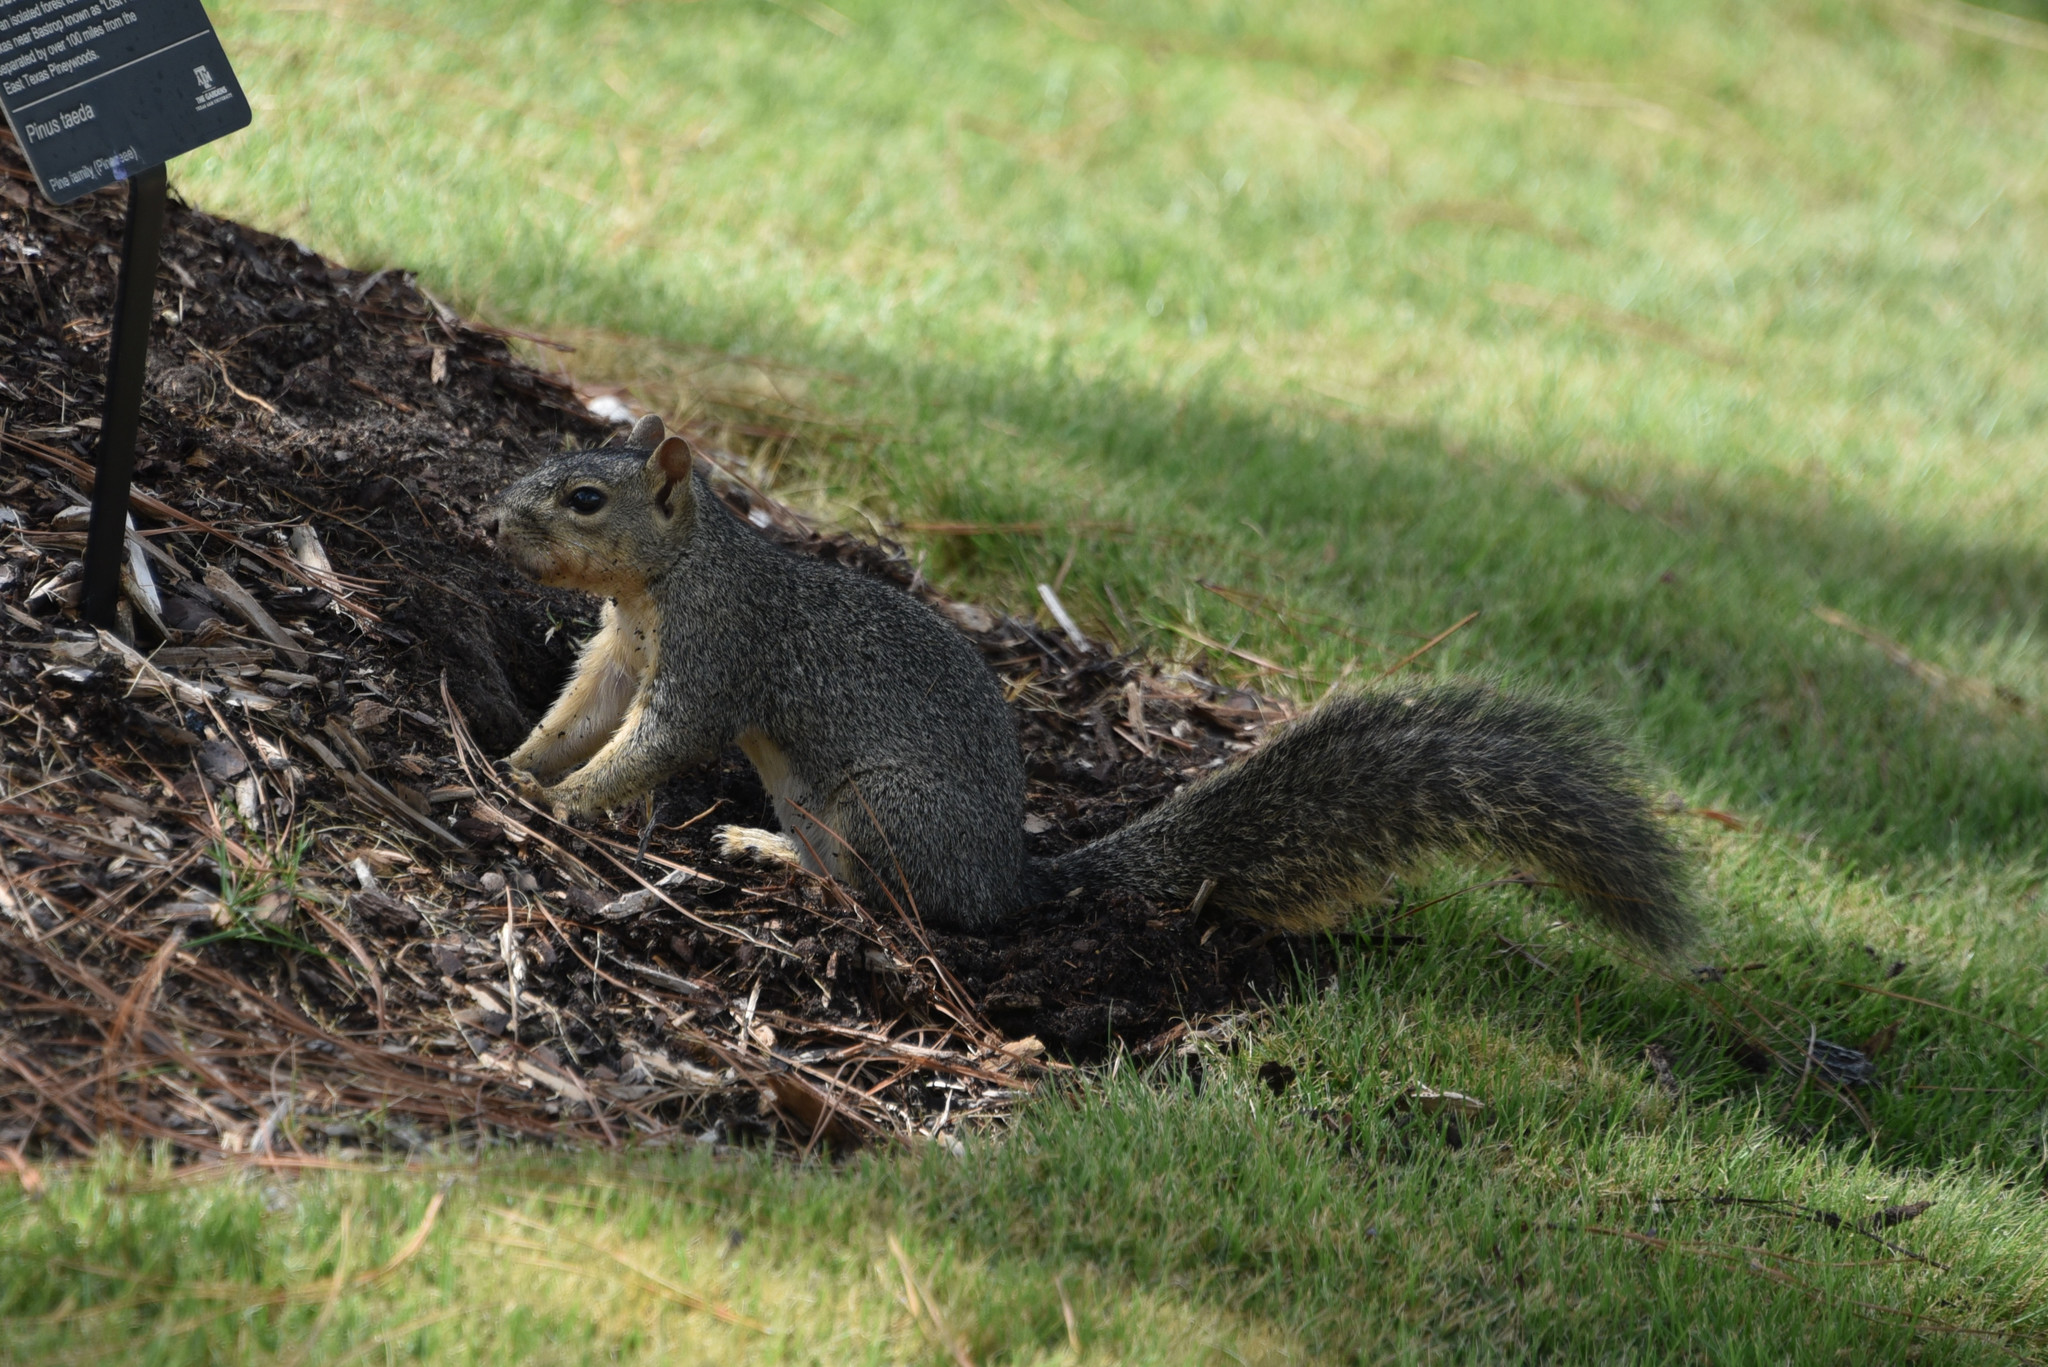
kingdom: Animalia
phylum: Chordata
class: Mammalia
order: Rodentia
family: Sciuridae
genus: Sciurus
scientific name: Sciurus niger
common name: Fox squirrel
